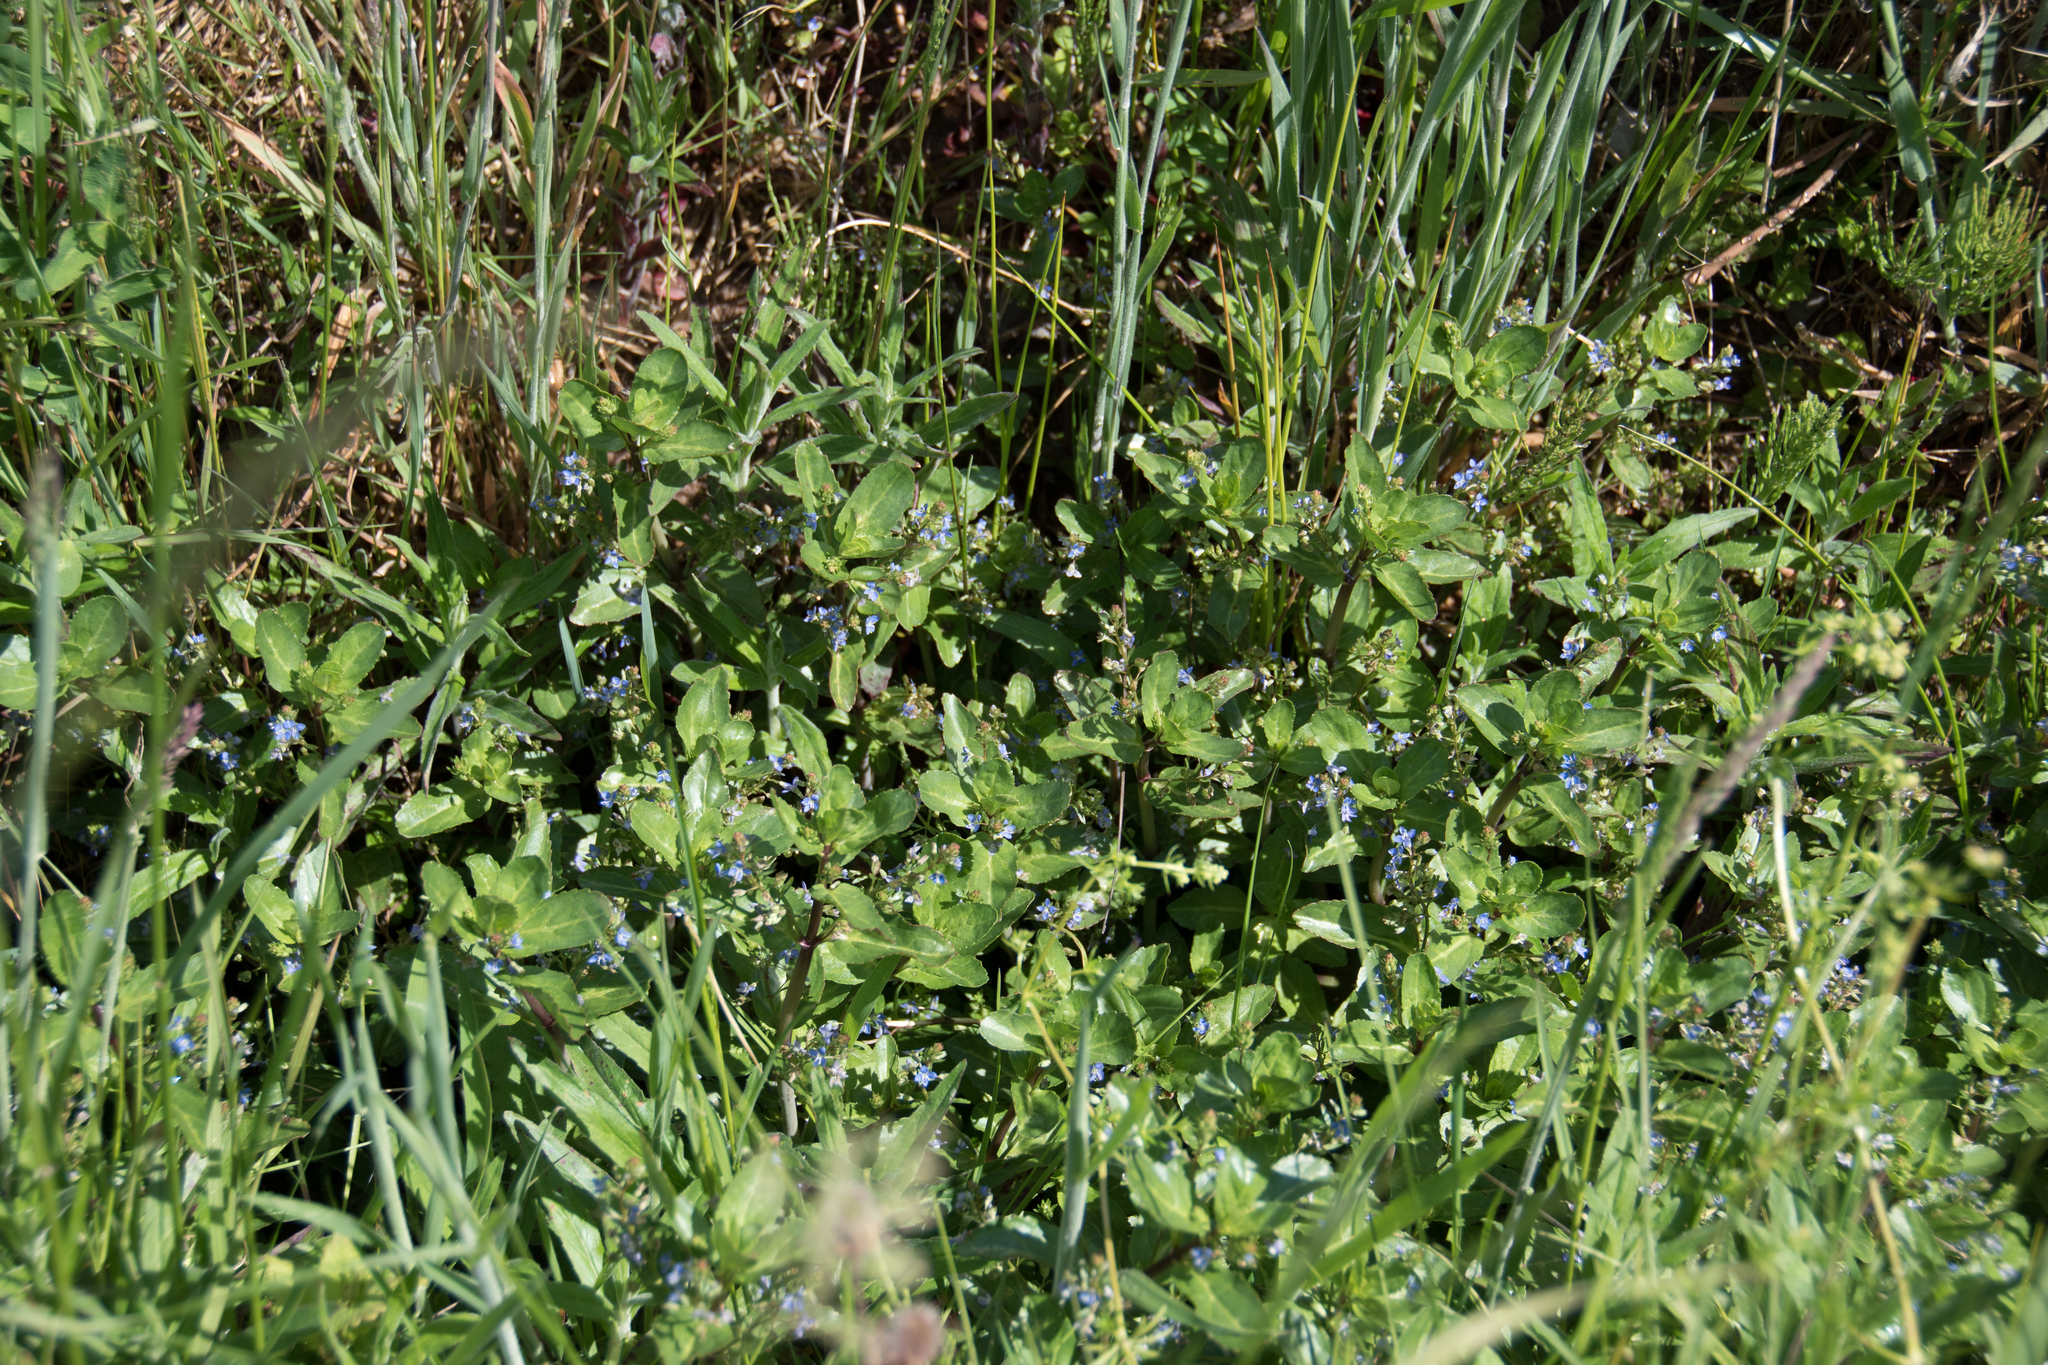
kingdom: Plantae
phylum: Tracheophyta
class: Magnoliopsida
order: Lamiales
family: Plantaginaceae
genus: Veronica
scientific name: Veronica beccabunga
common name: Brooklime
